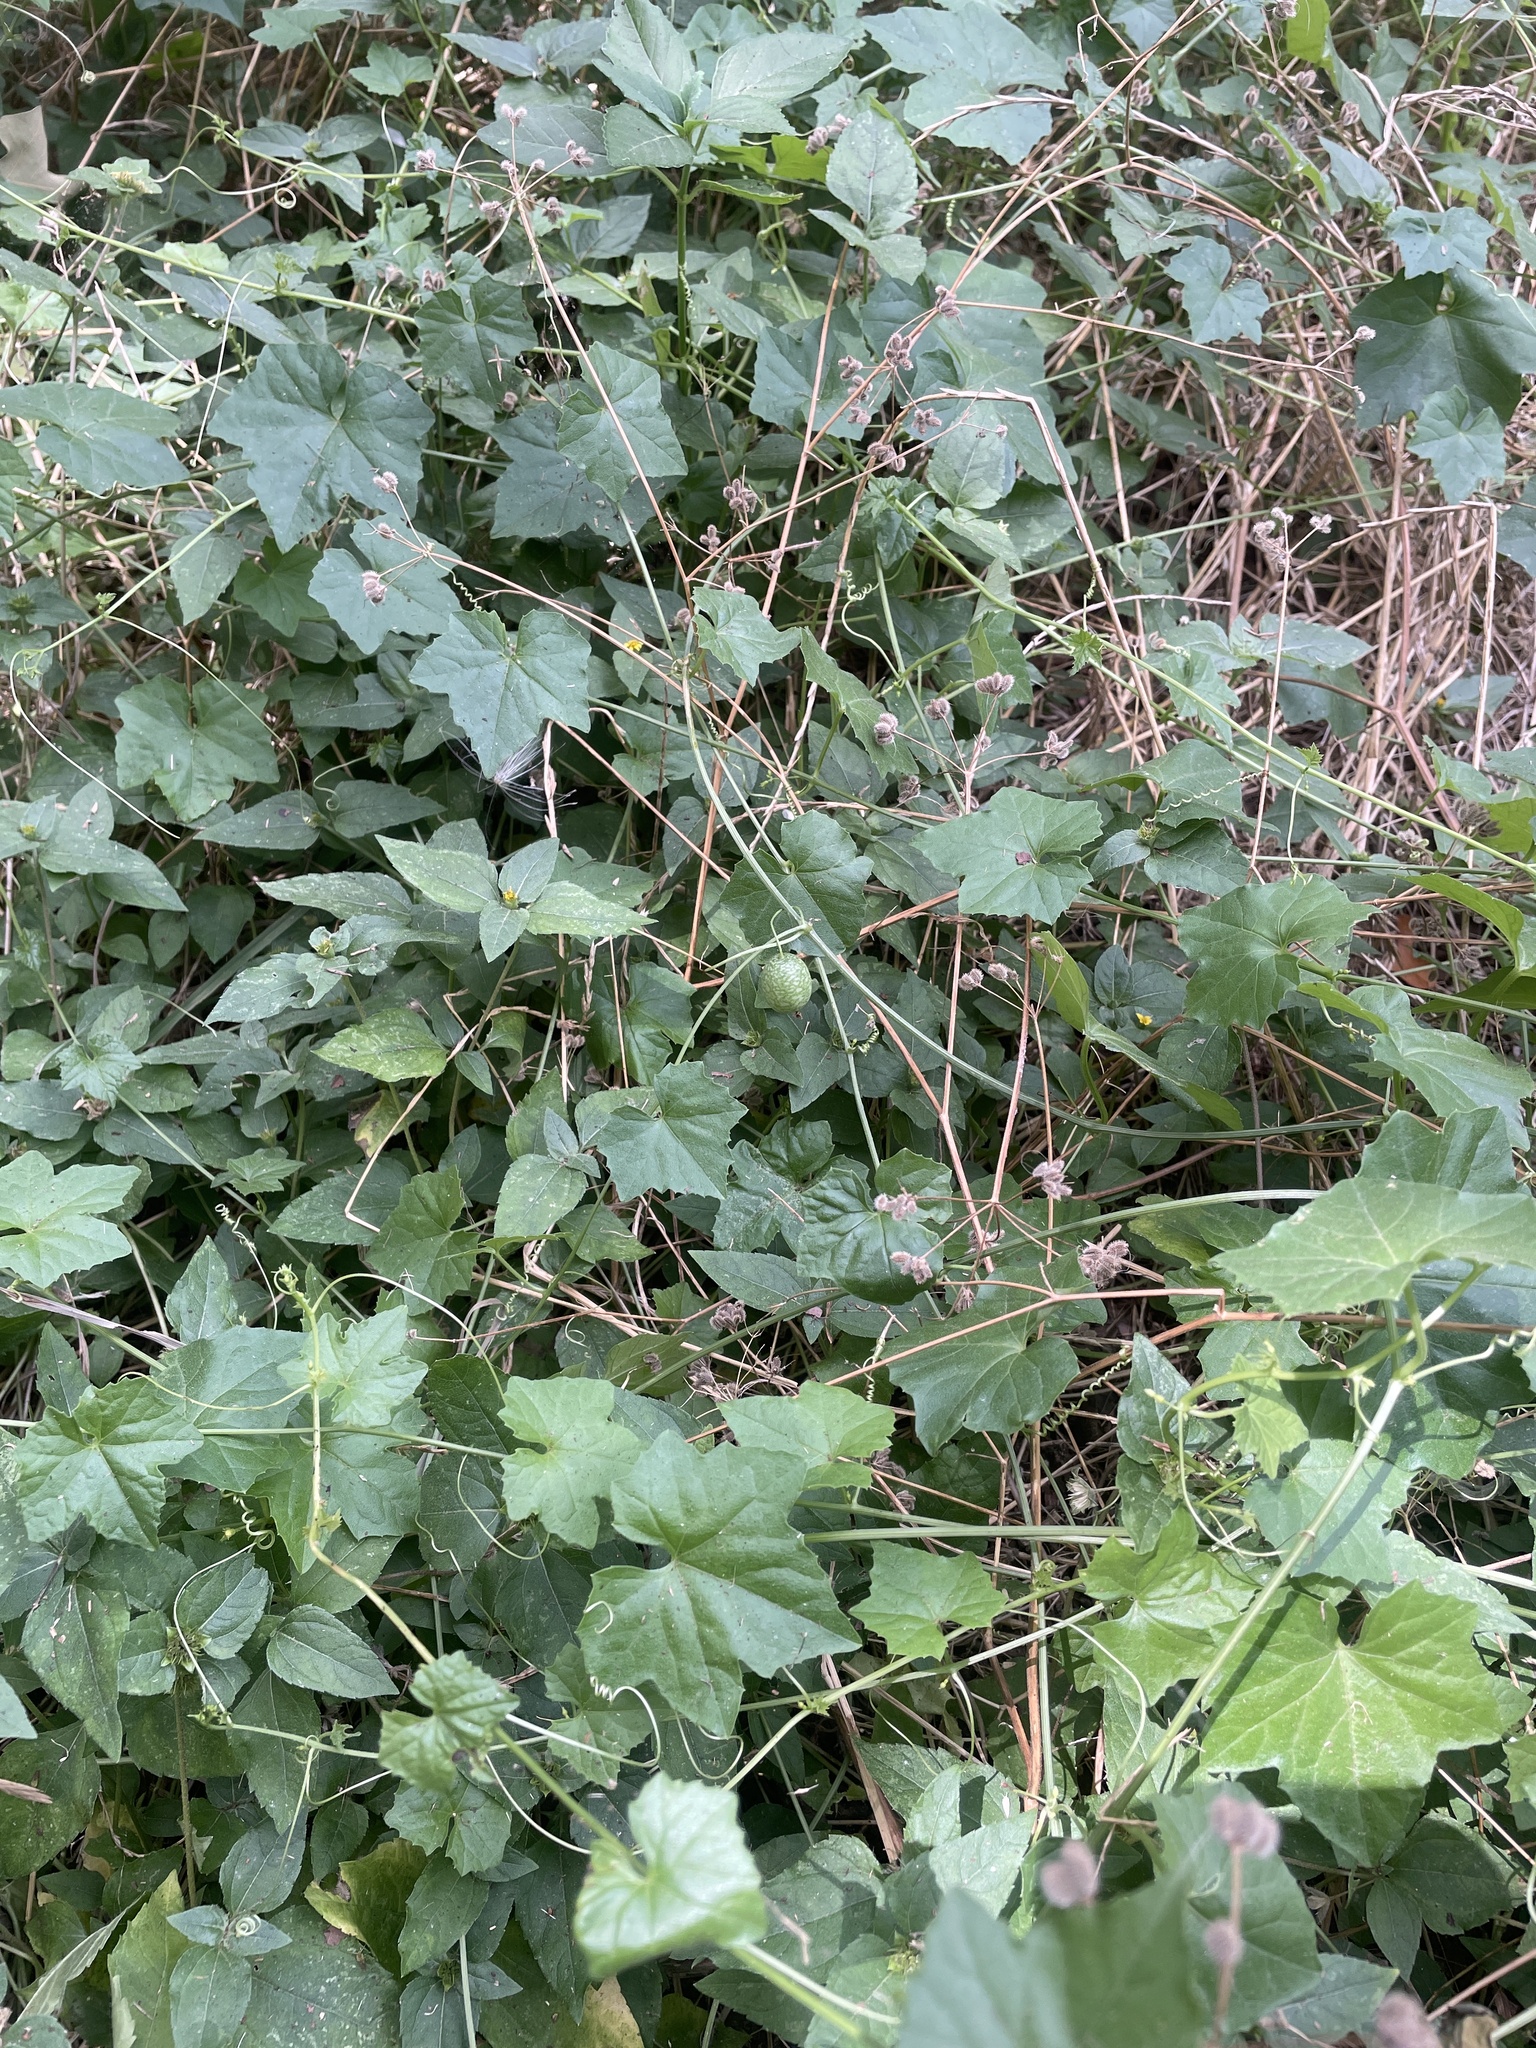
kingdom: Plantae
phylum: Tracheophyta
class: Magnoliopsida
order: Cucurbitales
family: Cucurbitaceae
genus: Melothria
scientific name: Melothria pendula
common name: Creeping-cucumber
